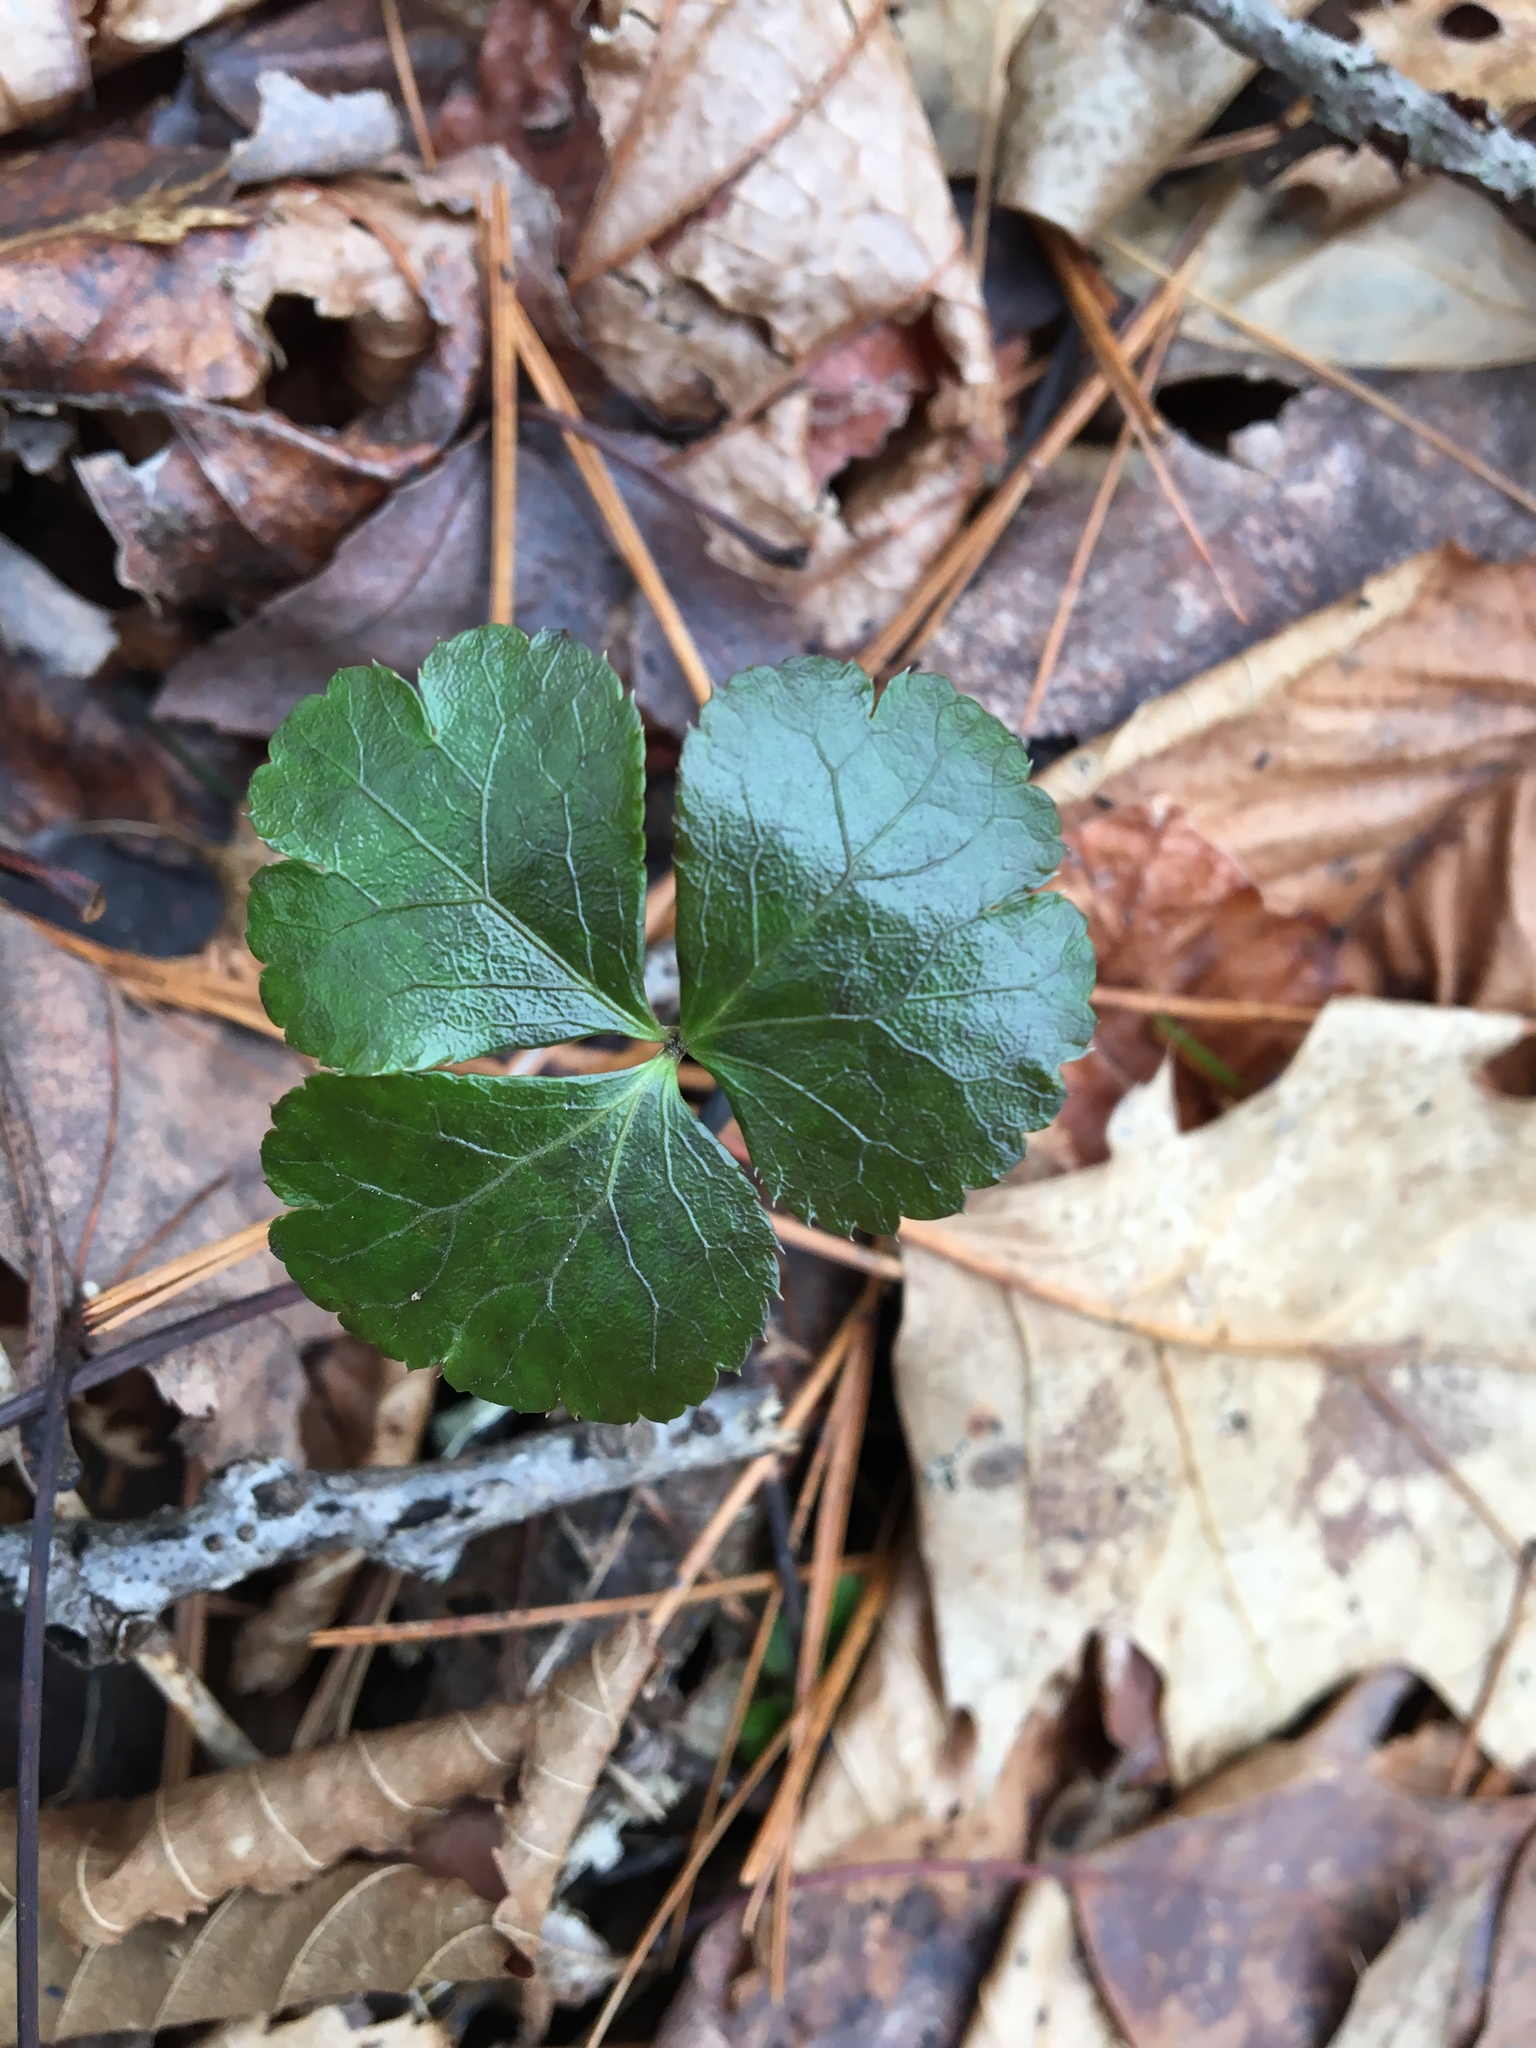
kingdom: Plantae
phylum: Tracheophyta
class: Magnoliopsida
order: Ranunculales
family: Ranunculaceae
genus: Coptis
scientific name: Coptis trifolia
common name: Canker-root
